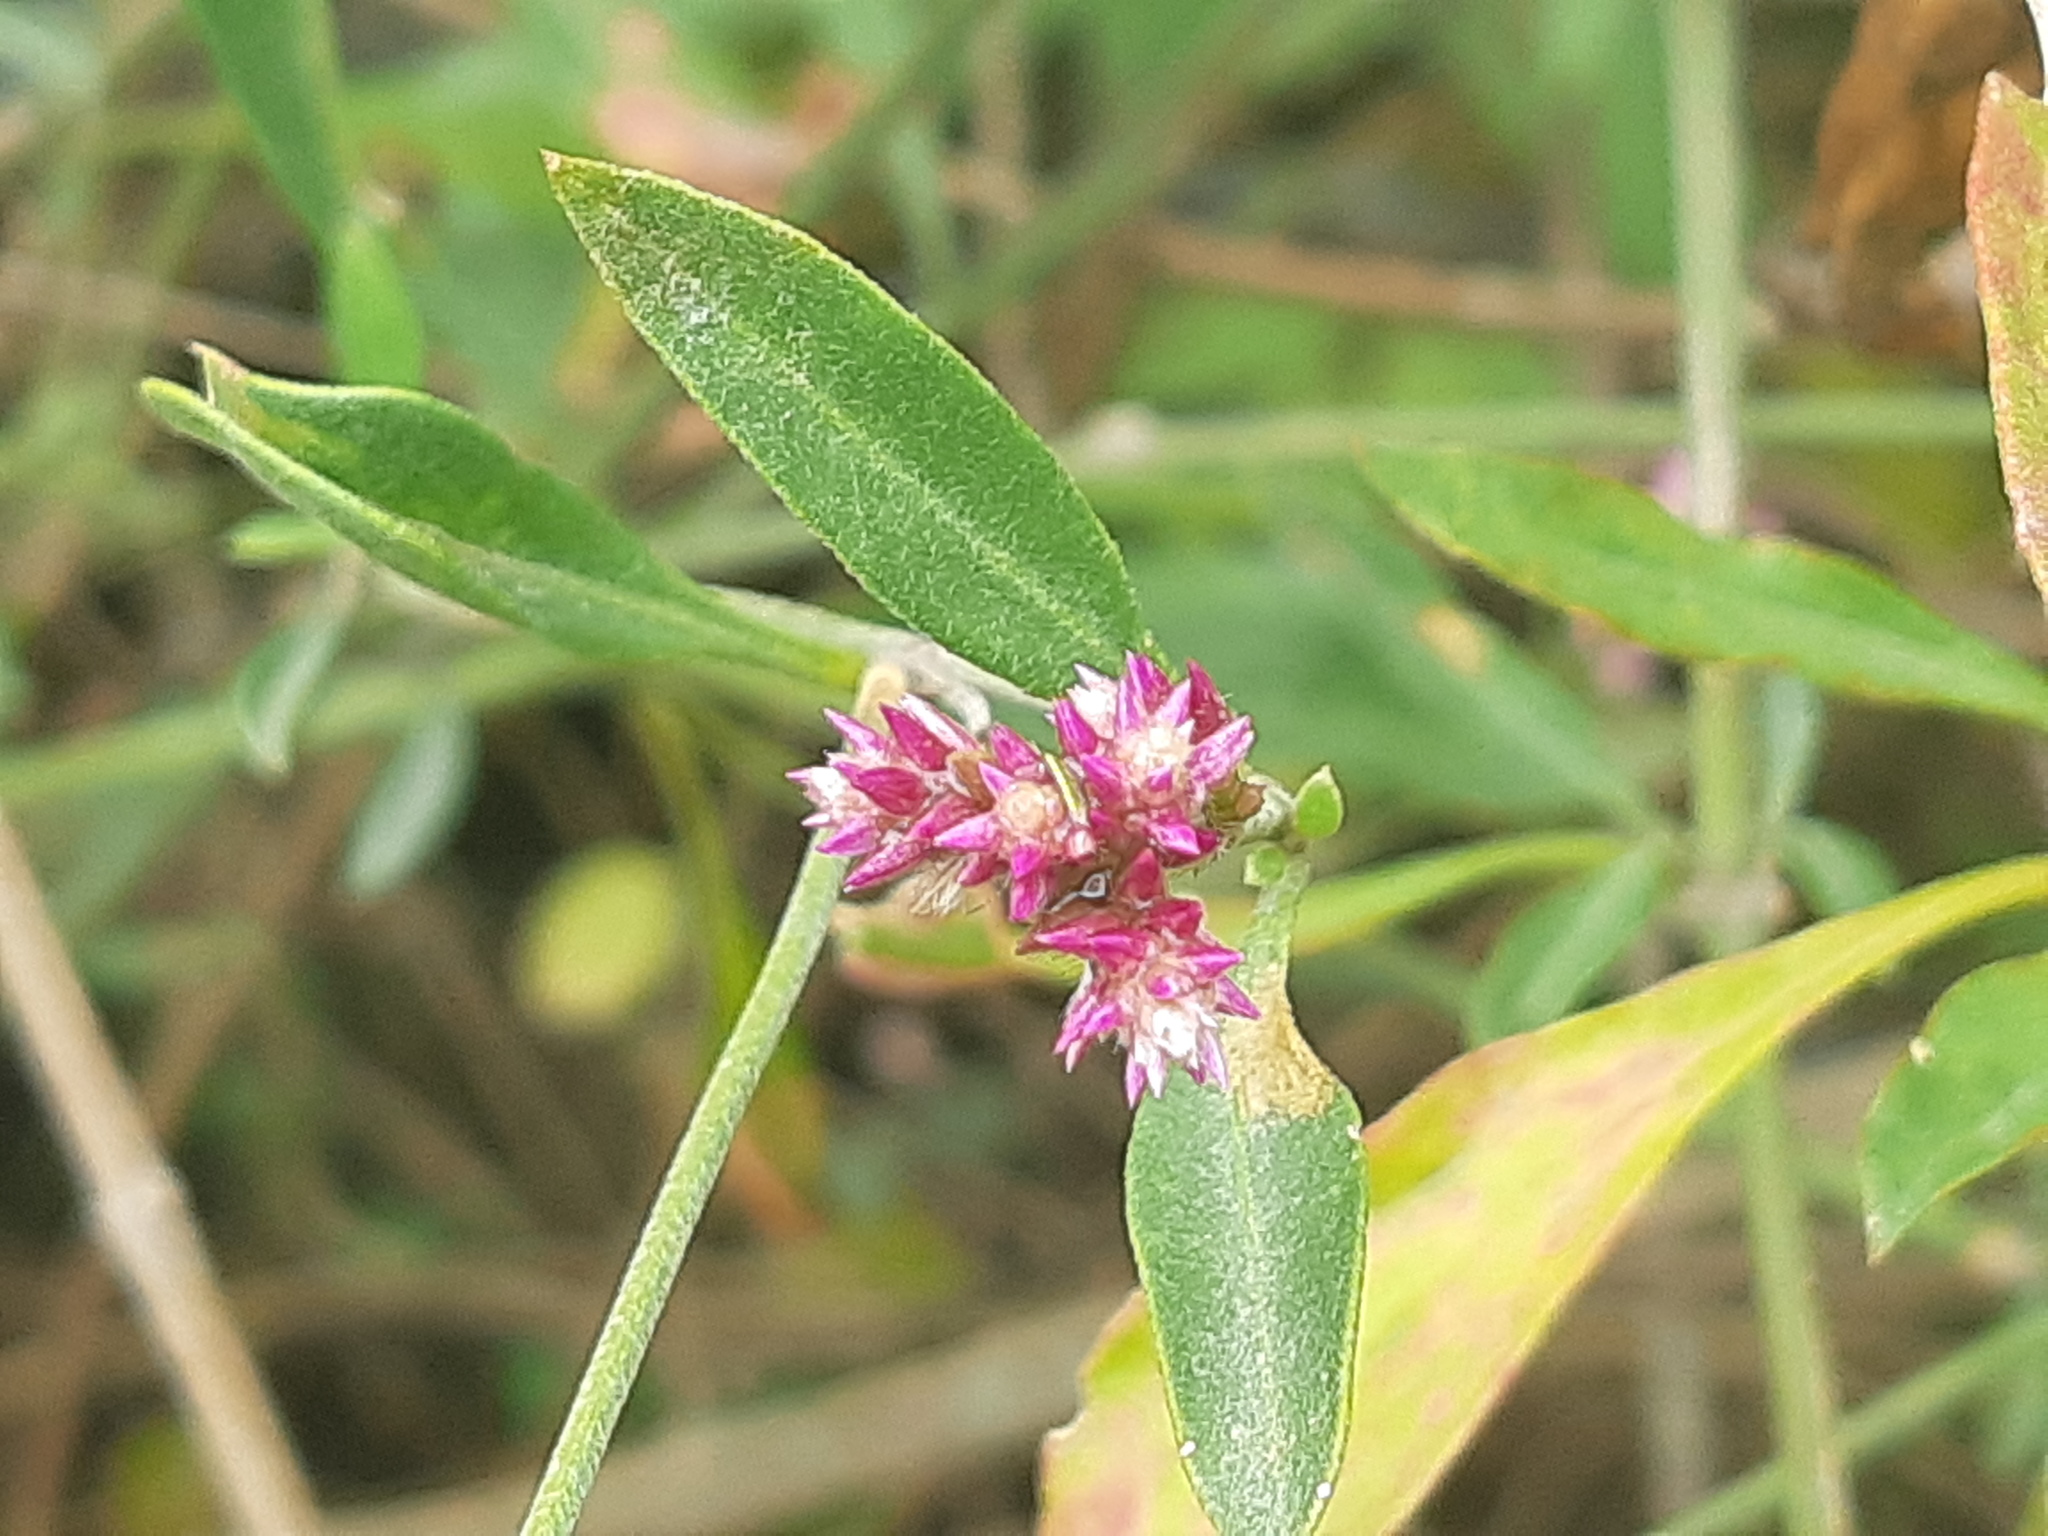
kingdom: Plantae
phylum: Tracheophyta
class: Magnoliopsida
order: Caryophyllales
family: Amaranthaceae
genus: Alternanthera
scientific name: Alternanthera porrigens
